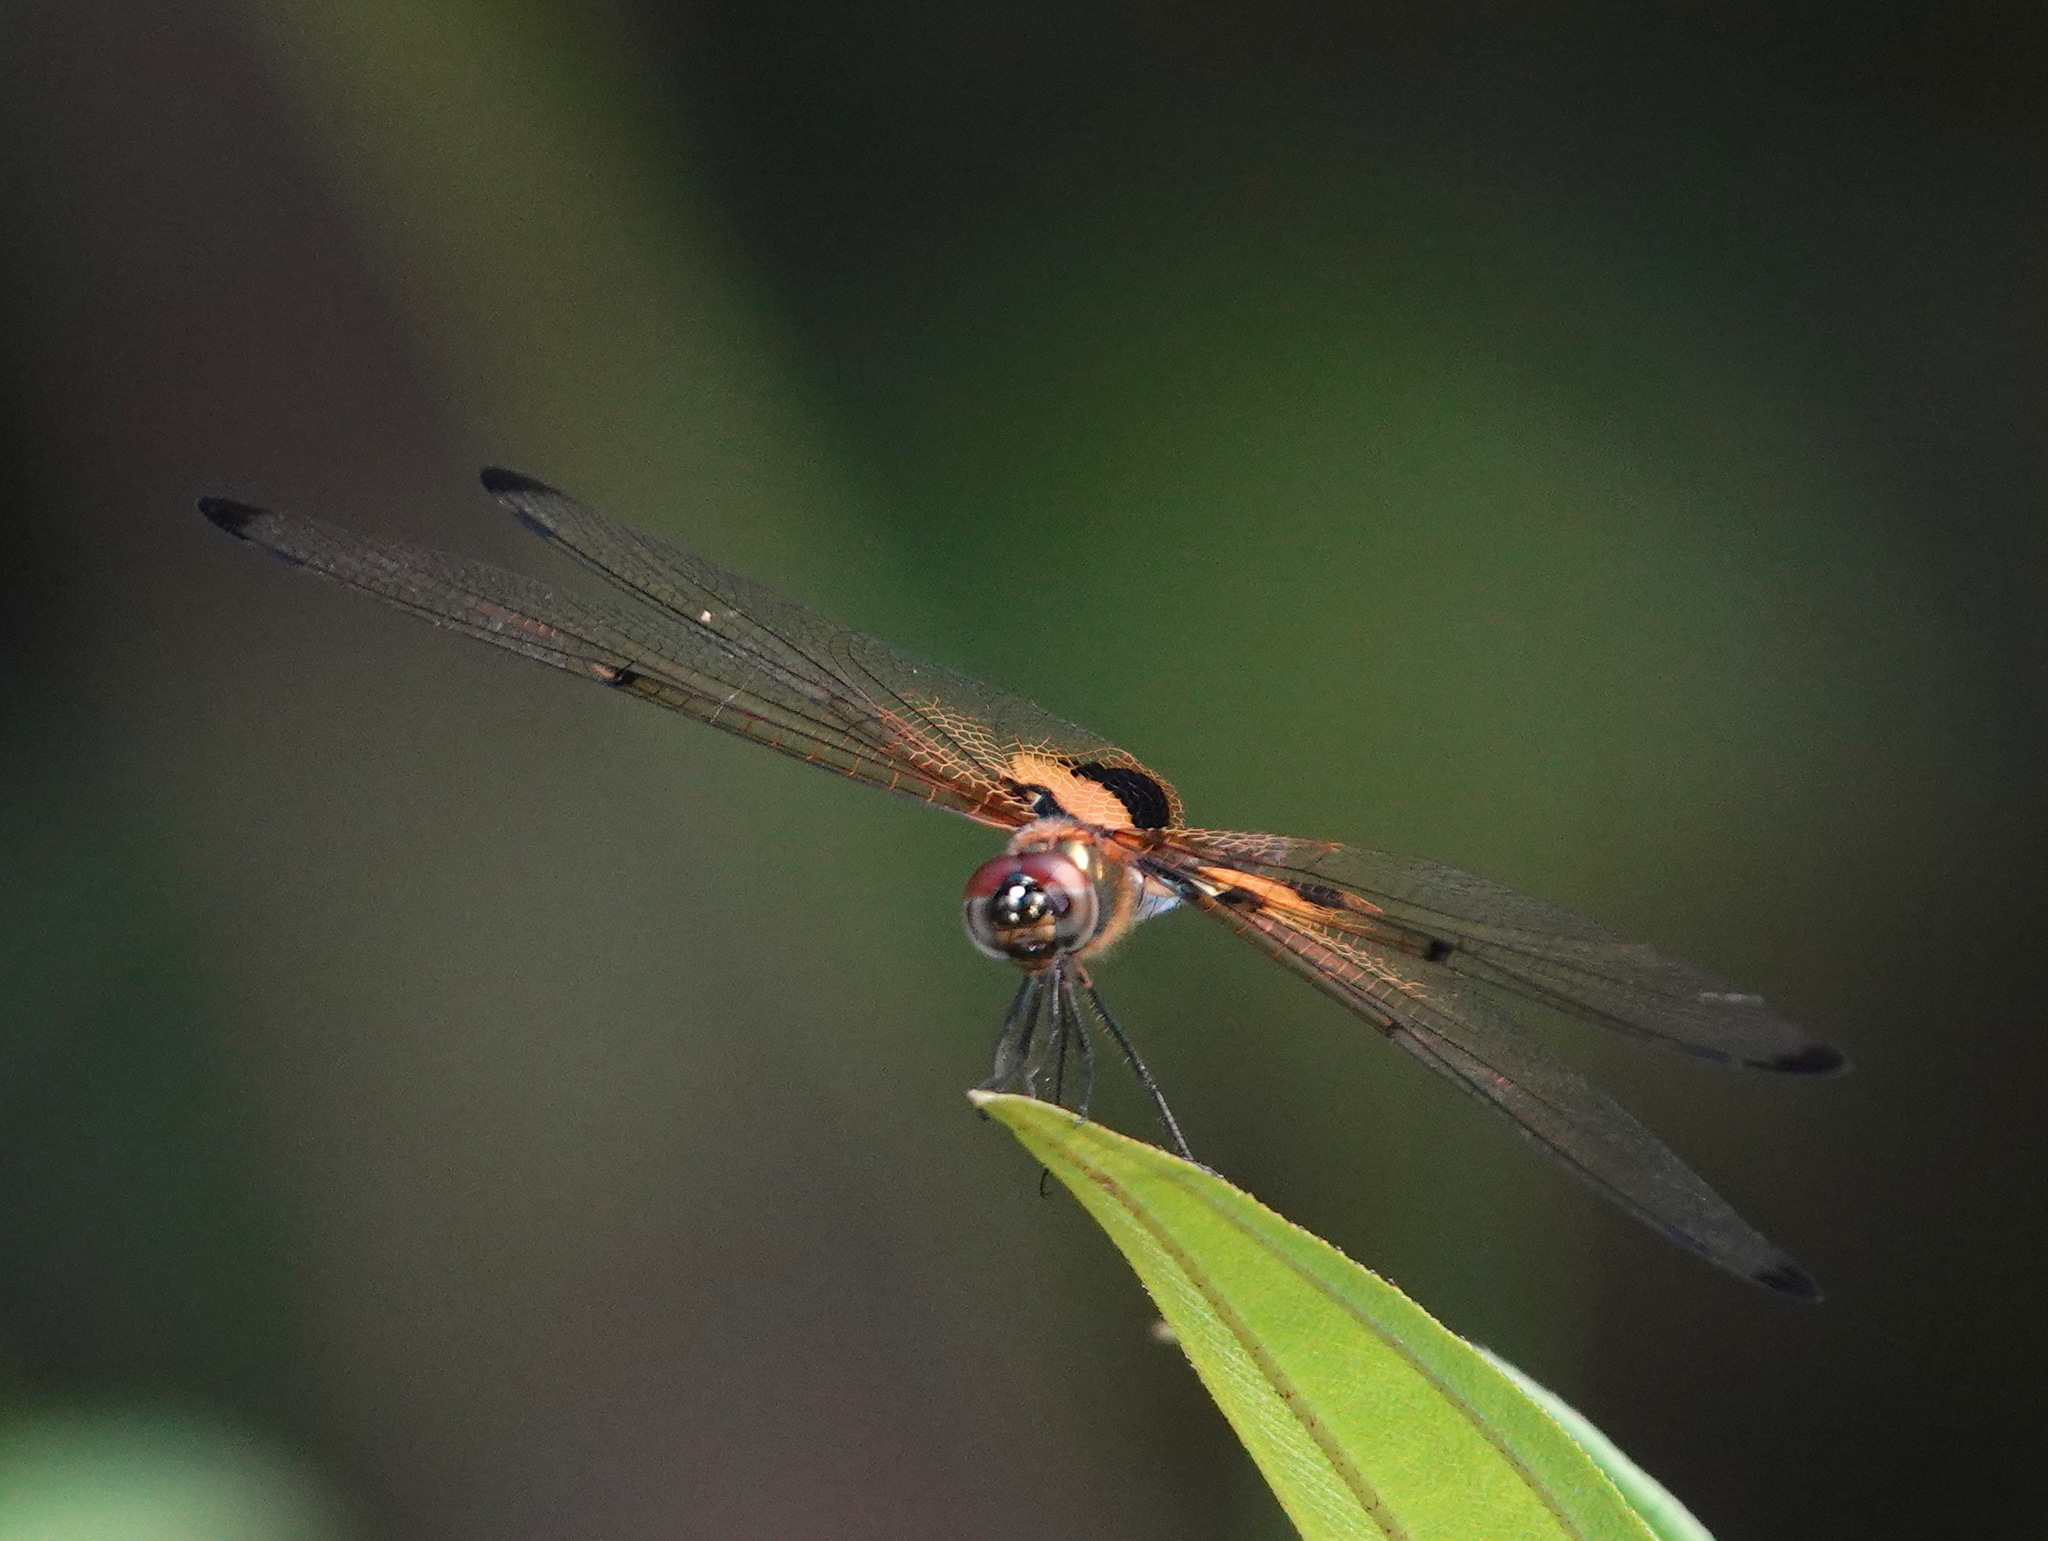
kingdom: Animalia
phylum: Arthropoda
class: Insecta
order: Odonata
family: Libellulidae
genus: Rhyothemis
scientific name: Rhyothemis phyllis
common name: Yellow-barred flutterer
